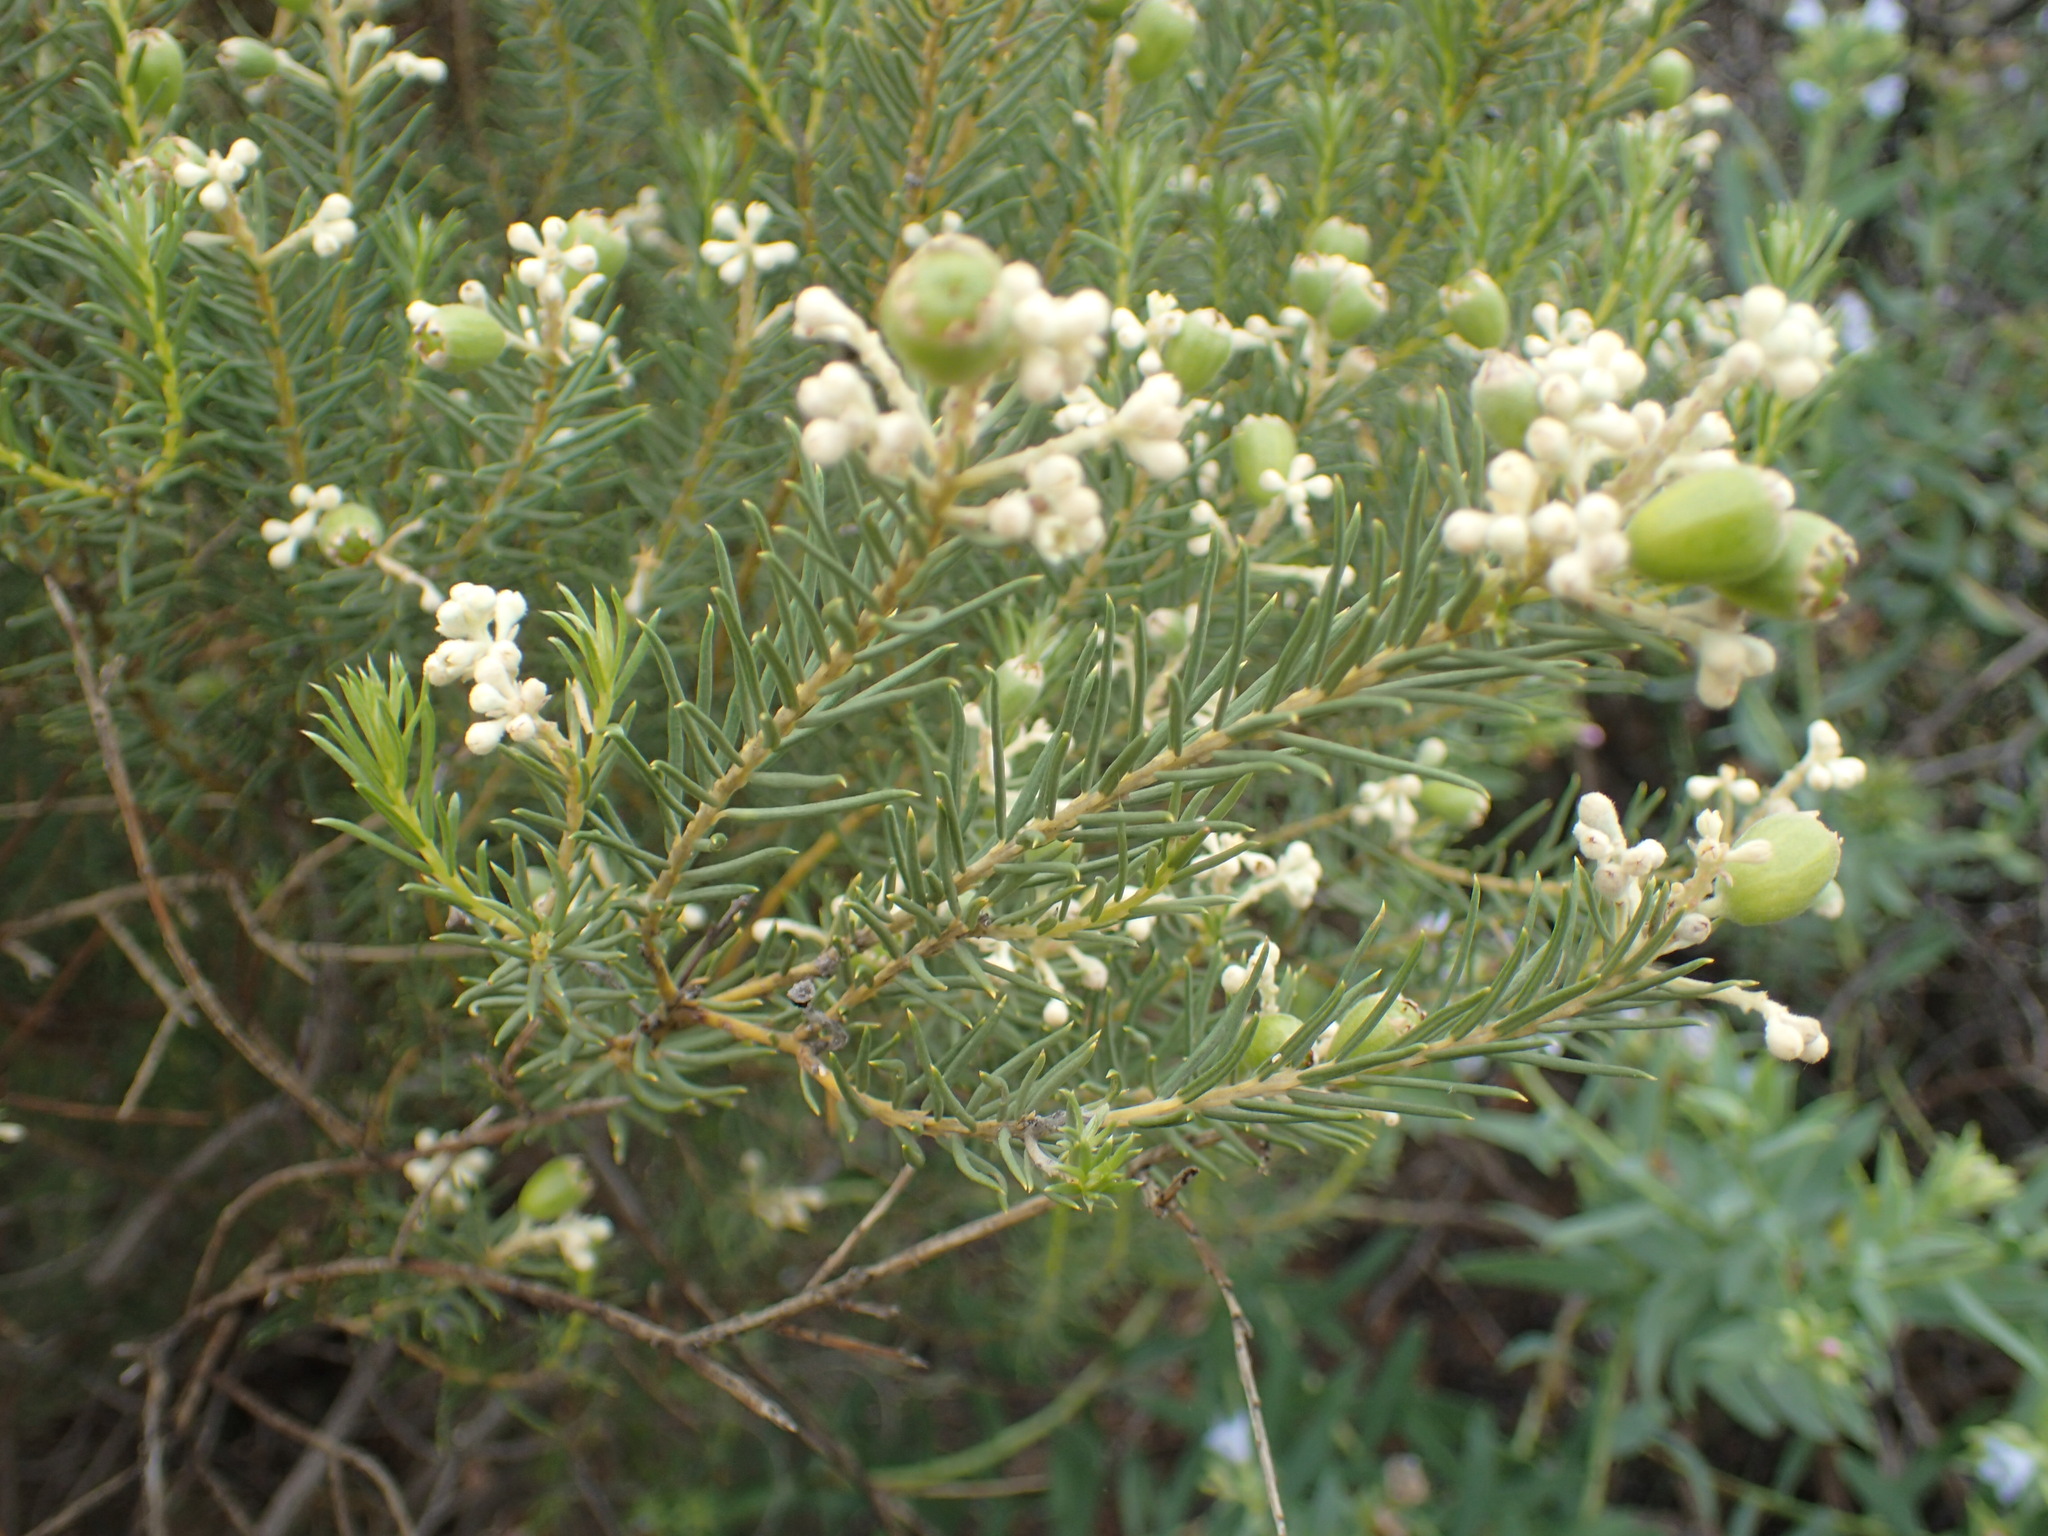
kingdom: Plantae
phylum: Tracheophyta
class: Magnoliopsida
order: Rosales
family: Rhamnaceae
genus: Phylica
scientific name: Phylica rigidifolia
